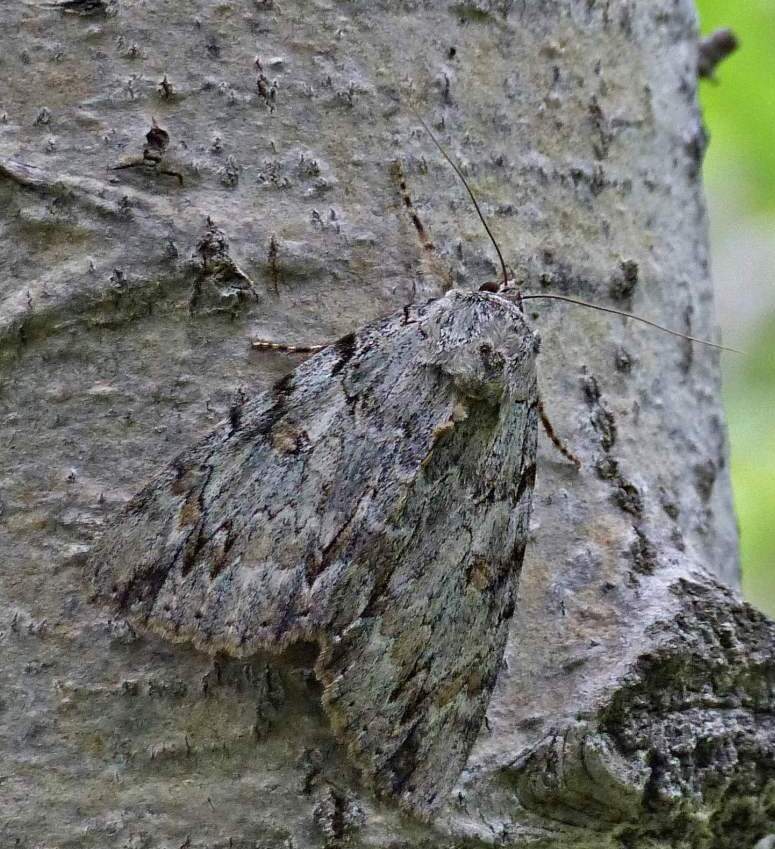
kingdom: Animalia
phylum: Arthropoda
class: Insecta
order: Lepidoptera
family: Erebidae
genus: Catocala
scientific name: Catocala neogama
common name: Bride underwing
